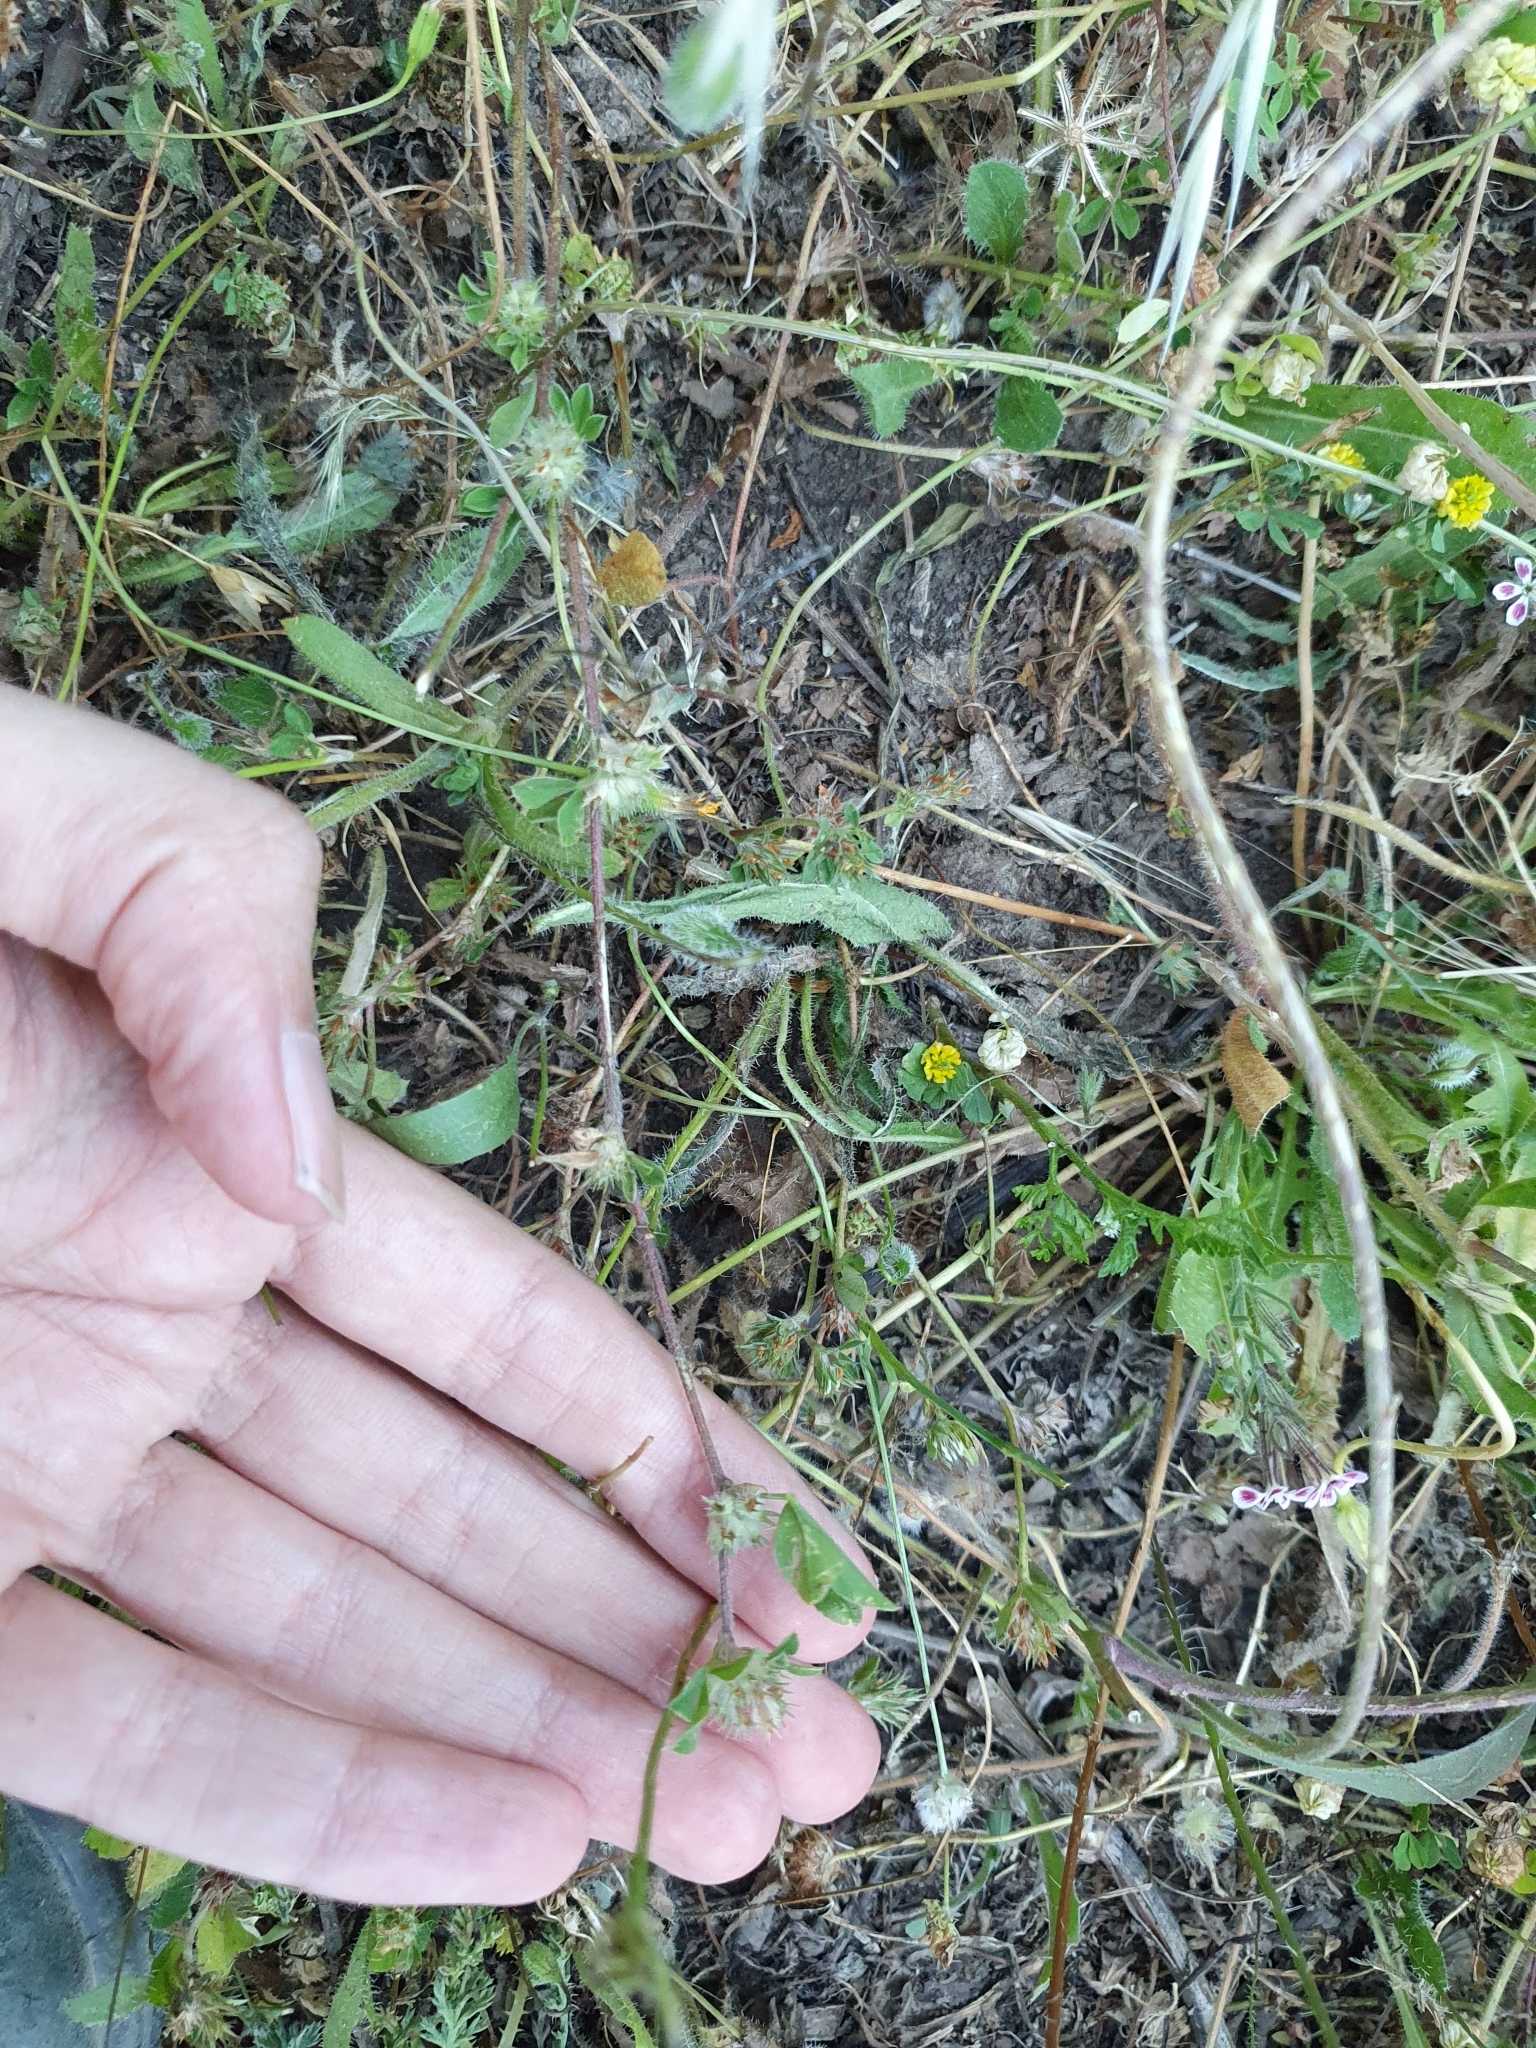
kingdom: Plantae
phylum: Tracheophyta
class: Magnoliopsida
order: Fabales
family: Fabaceae
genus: Trifolium
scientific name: Trifolium striatum
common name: Knotted clover
